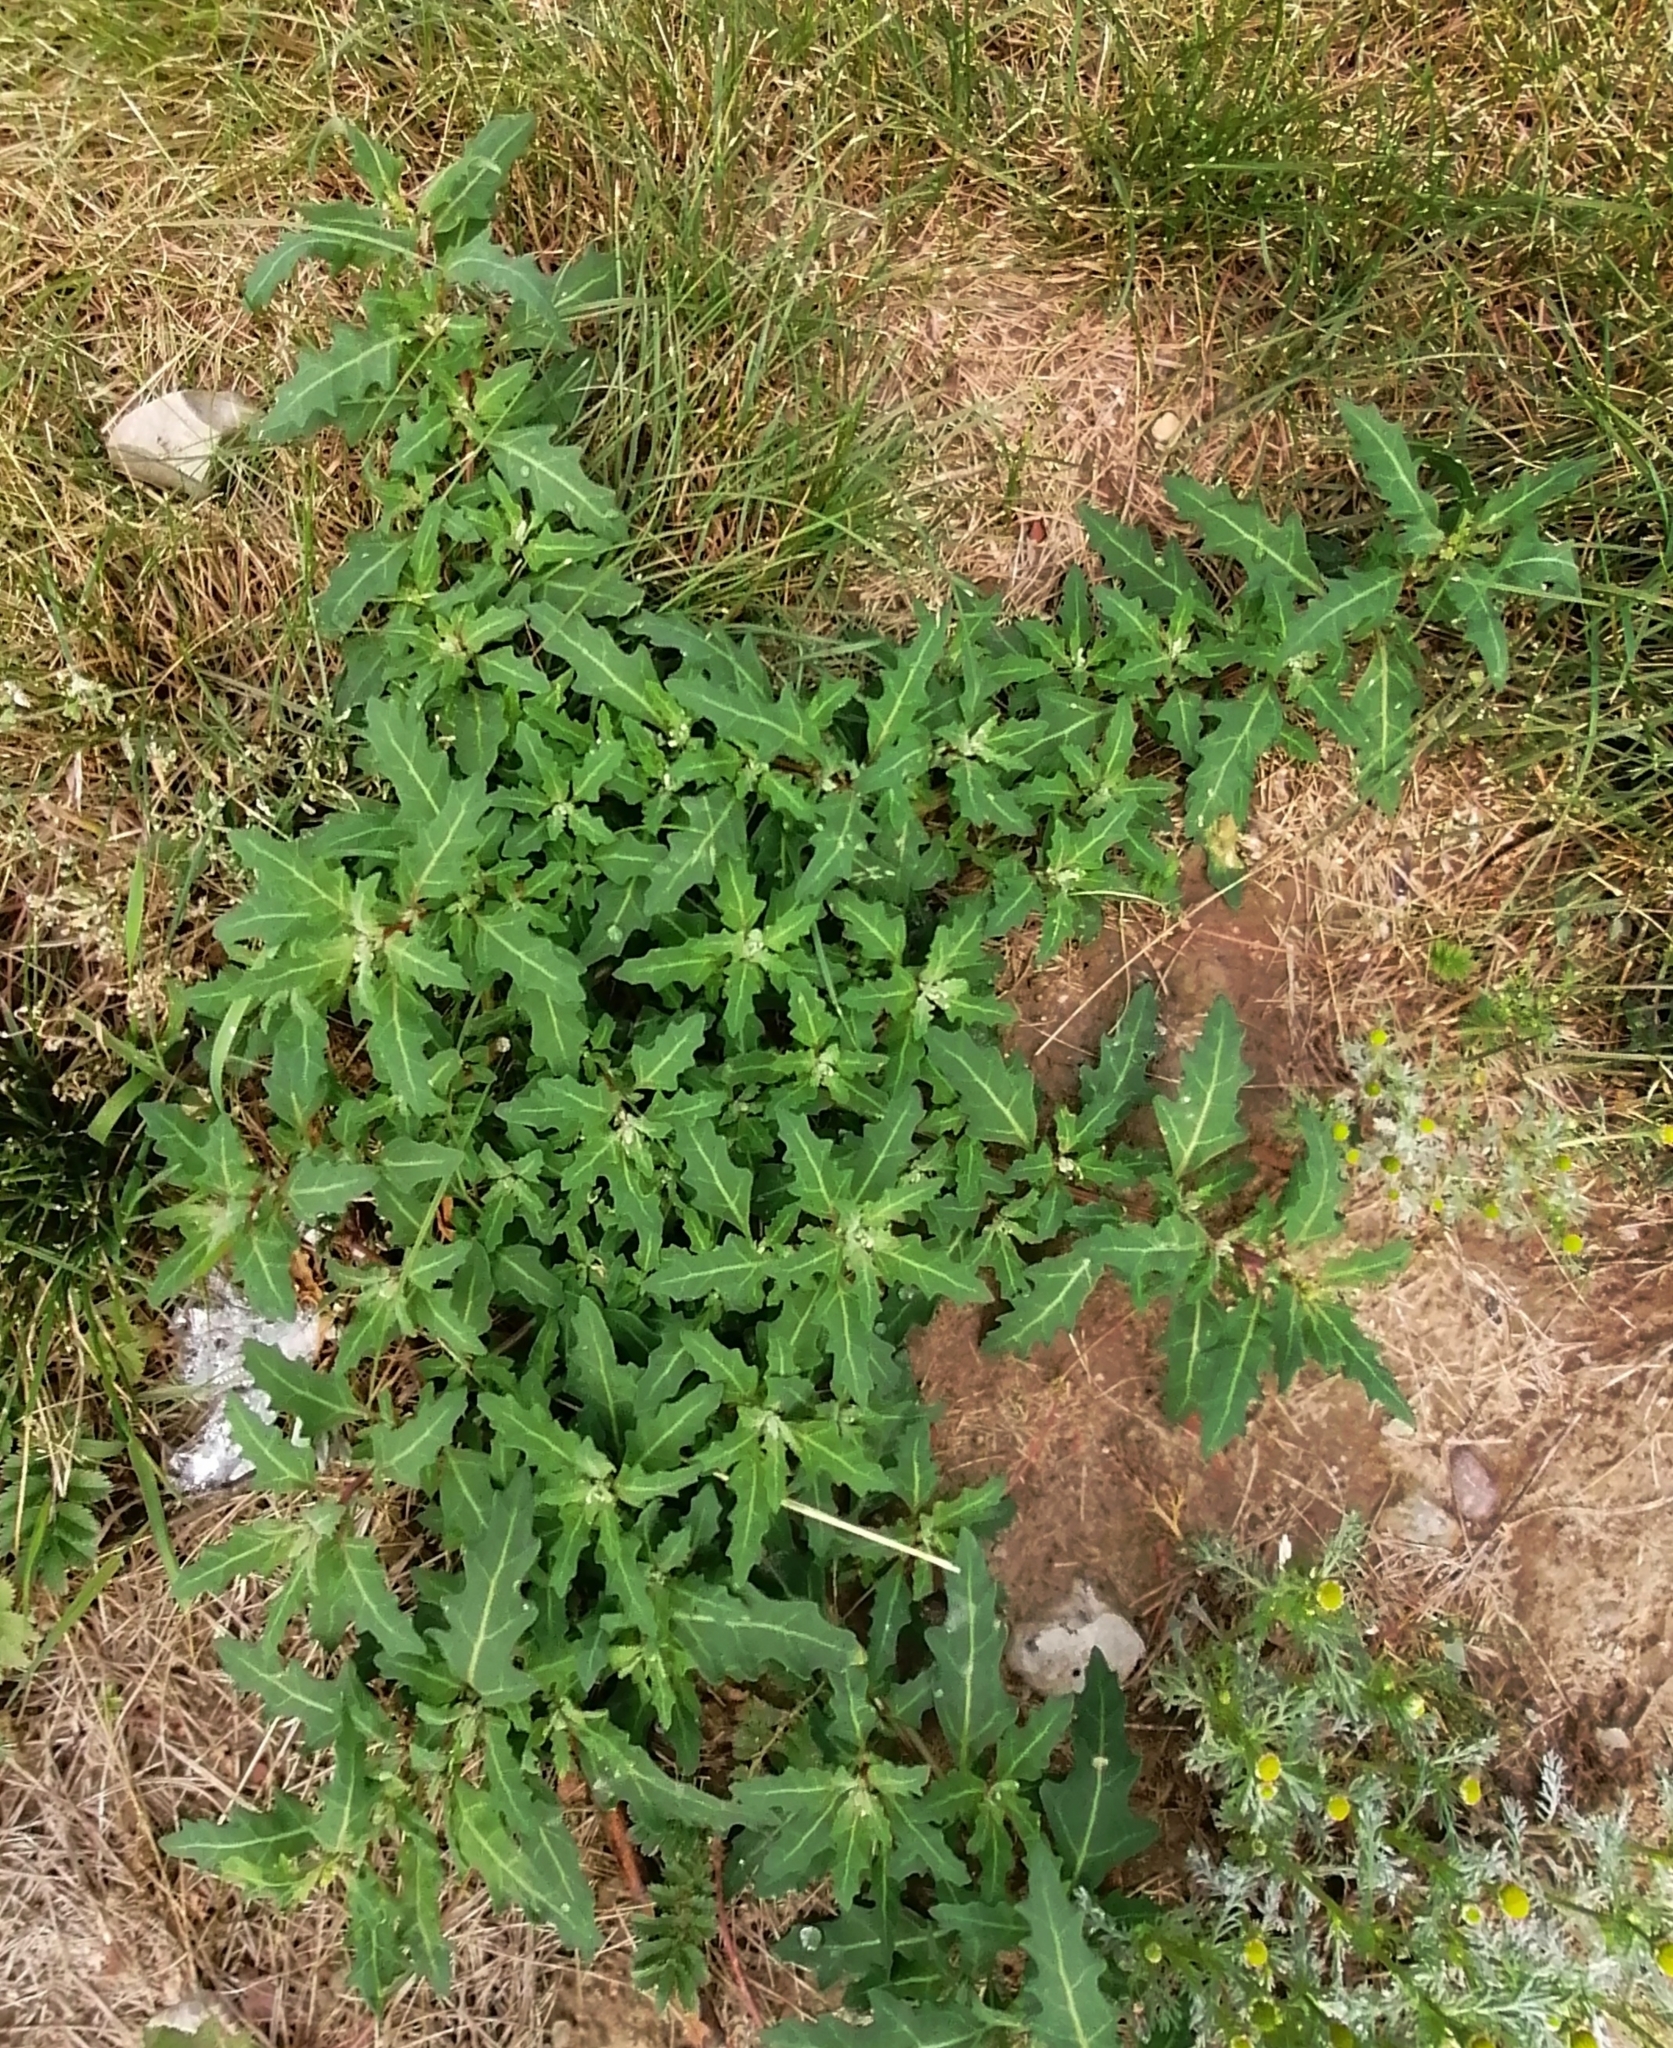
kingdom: Plantae
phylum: Tracheophyta
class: Magnoliopsida
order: Caryophyllales
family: Amaranthaceae
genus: Oxybasis
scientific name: Oxybasis glauca
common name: Glaucous goosefoot
